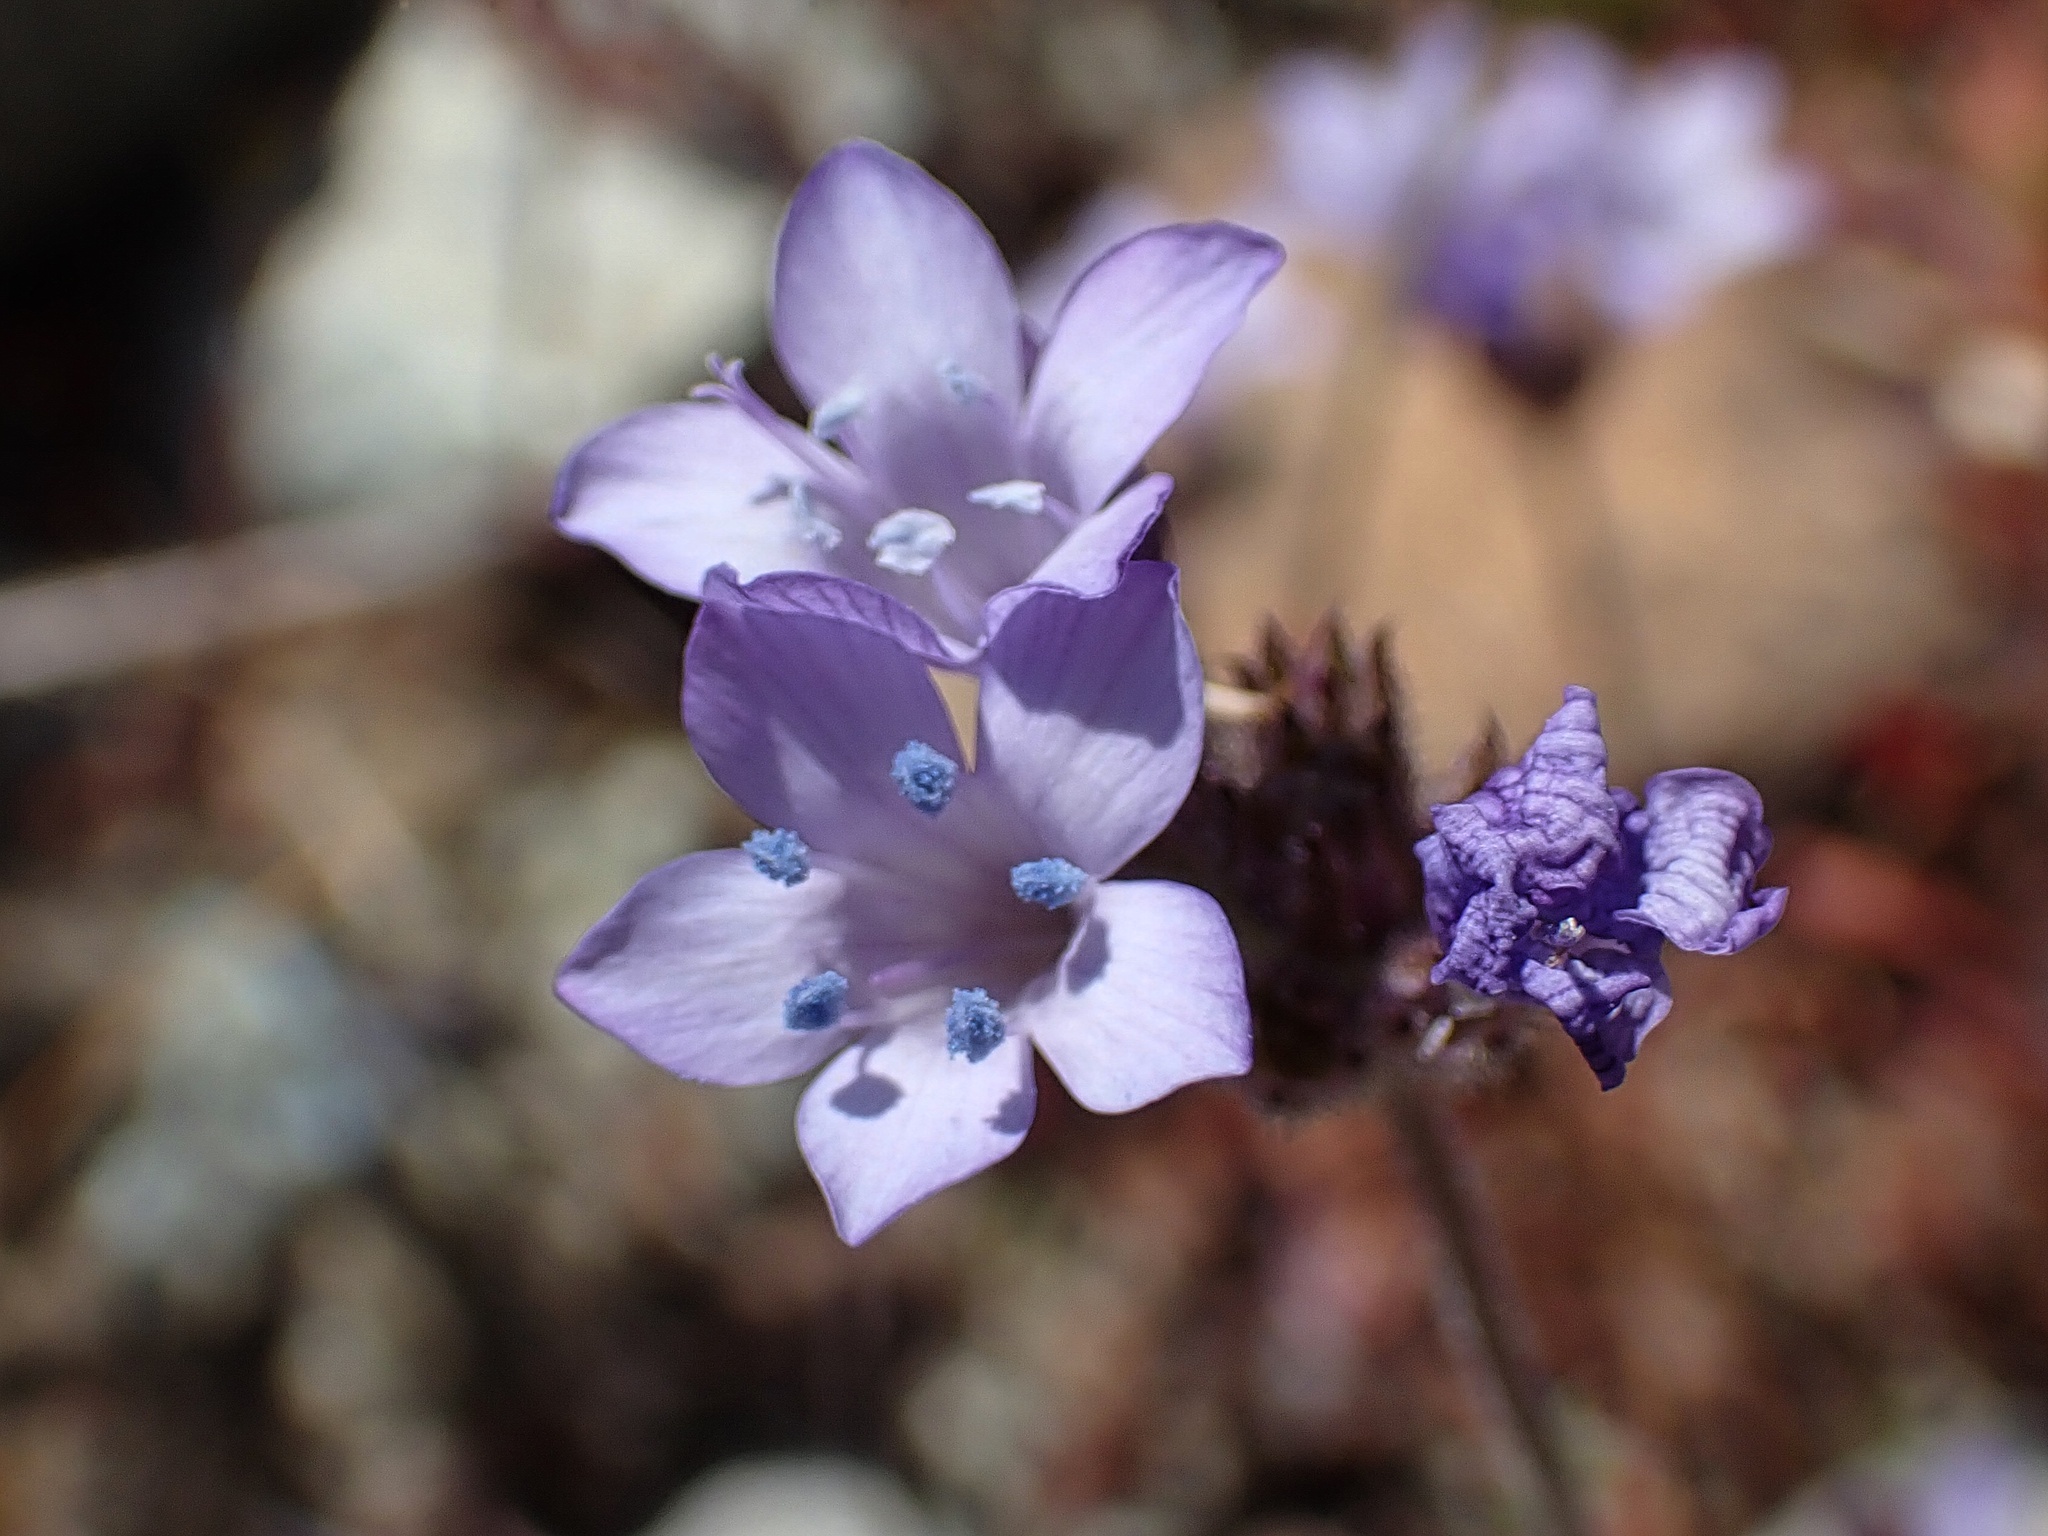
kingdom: Plantae
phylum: Tracheophyta
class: Magnoliopsida
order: Ericales
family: Polemoniaceae
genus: Gilia
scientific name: Gilia achilleifolia
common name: California gily-flower
